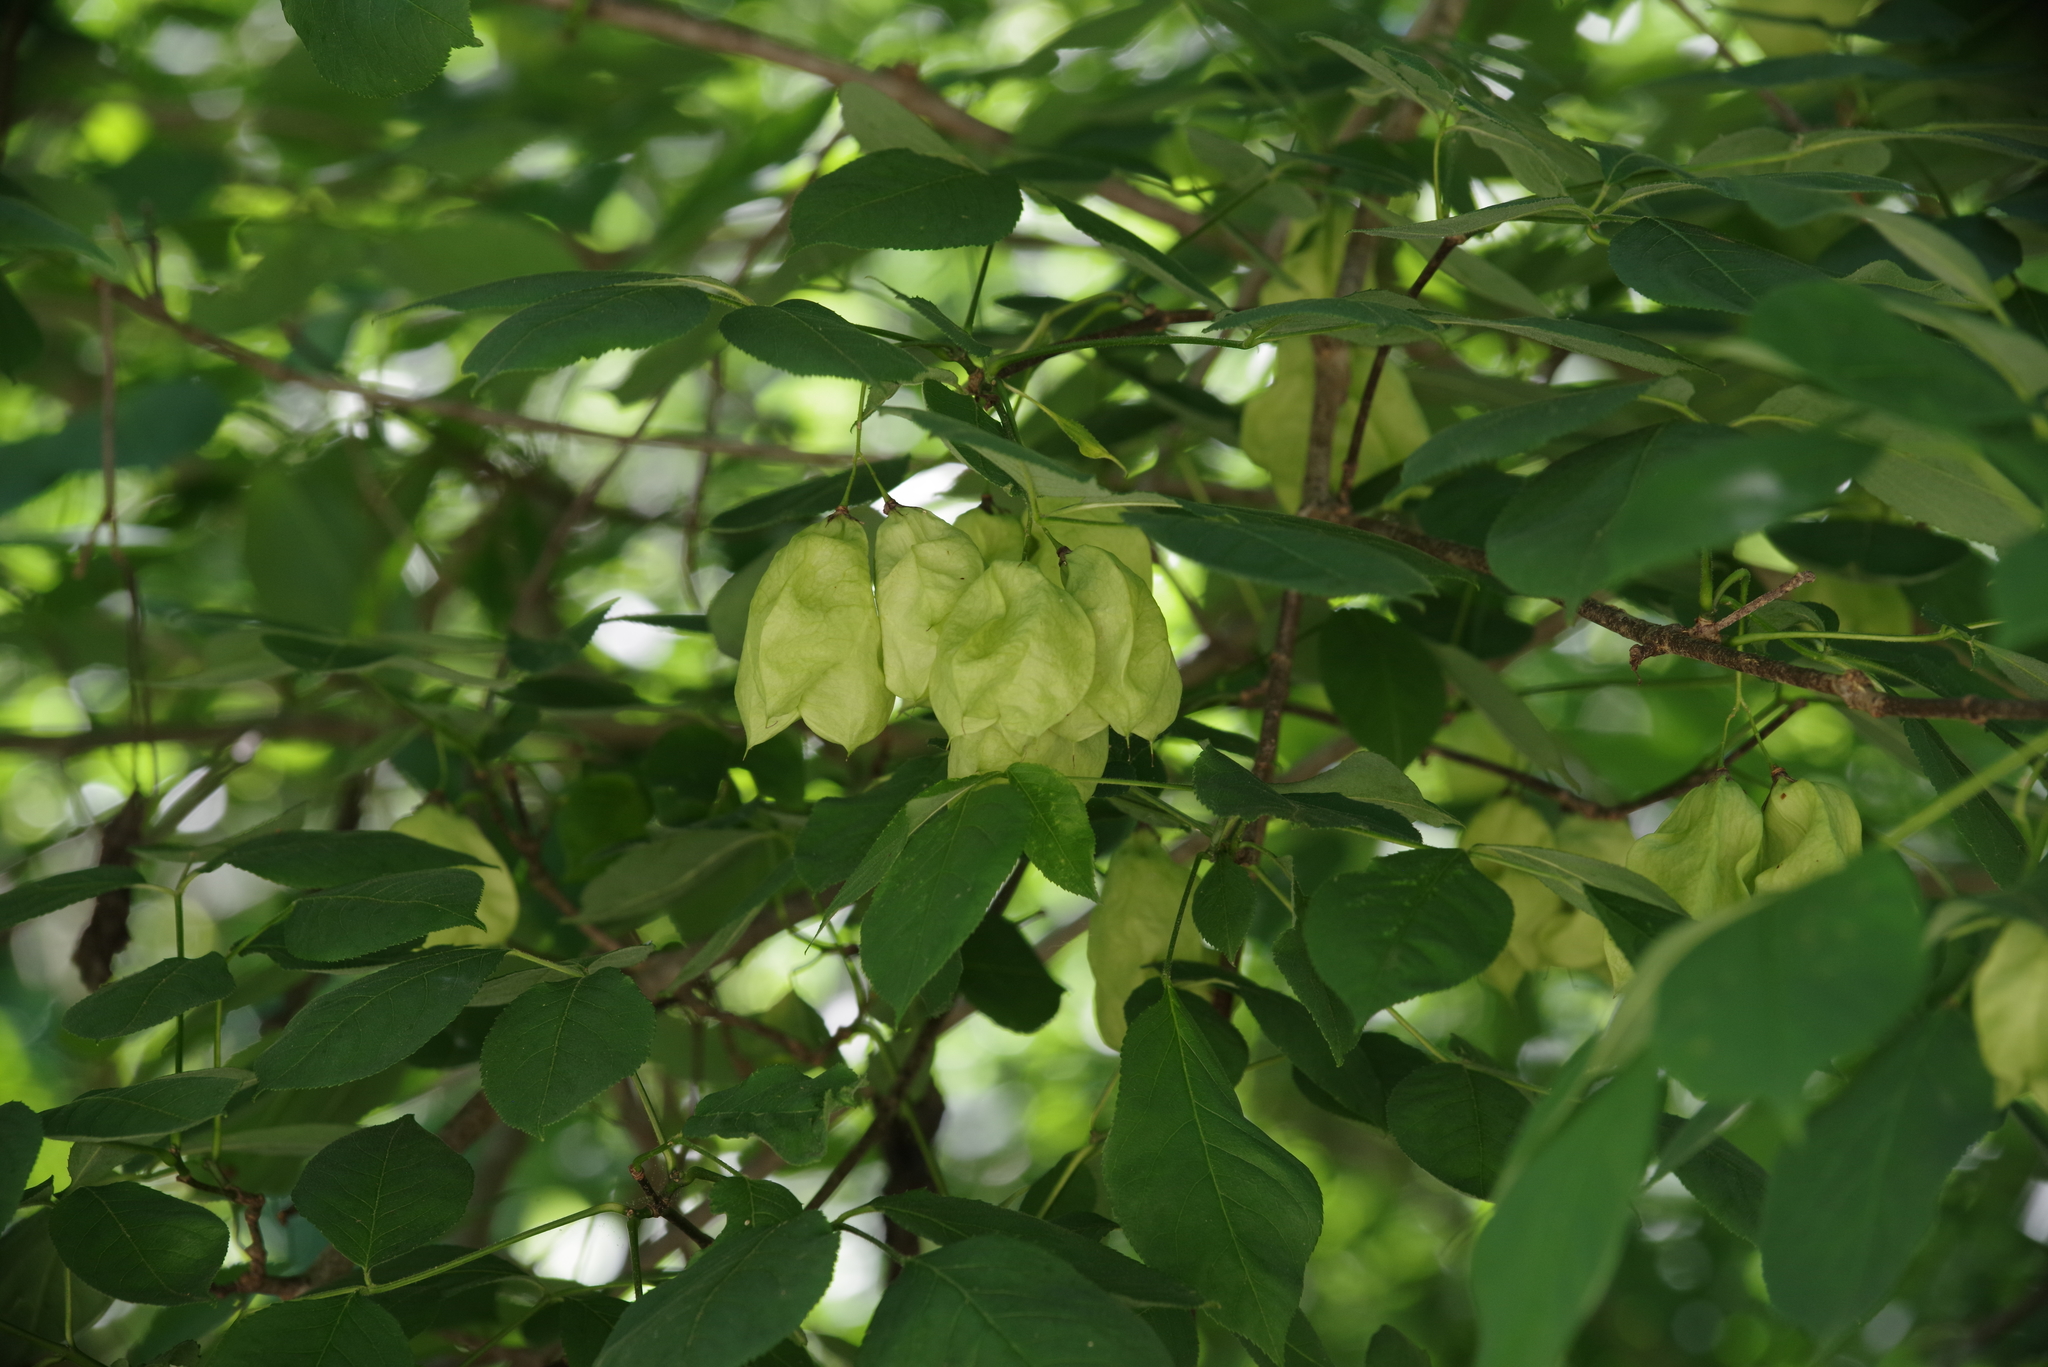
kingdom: Plantae
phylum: Tracheophyta
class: Magnoliopsida
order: Crossosomatales
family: Staphyleaceae
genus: Staphylea
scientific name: Staphylea trifolia
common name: American bladdernut
